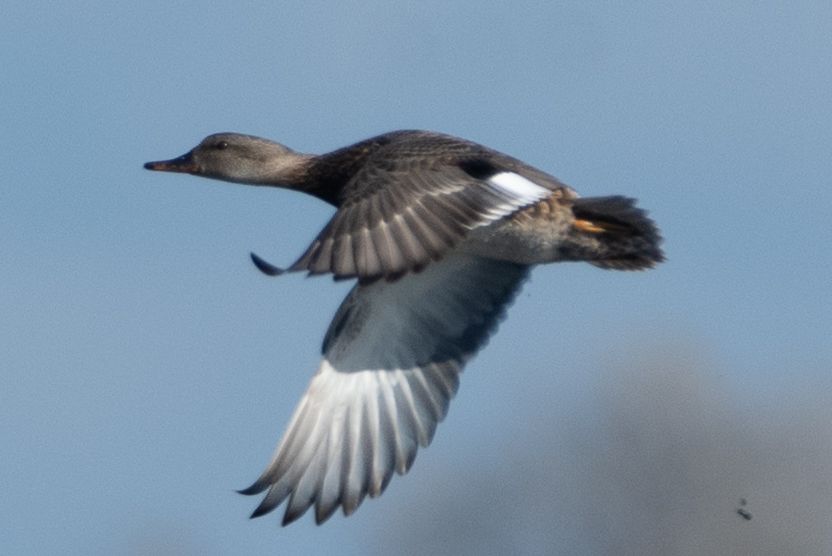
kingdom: Animalia
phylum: Chordata
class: Aves
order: Anseriformes
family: Anatidae
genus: Mareca
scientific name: Mareca strepera
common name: Gadwall
